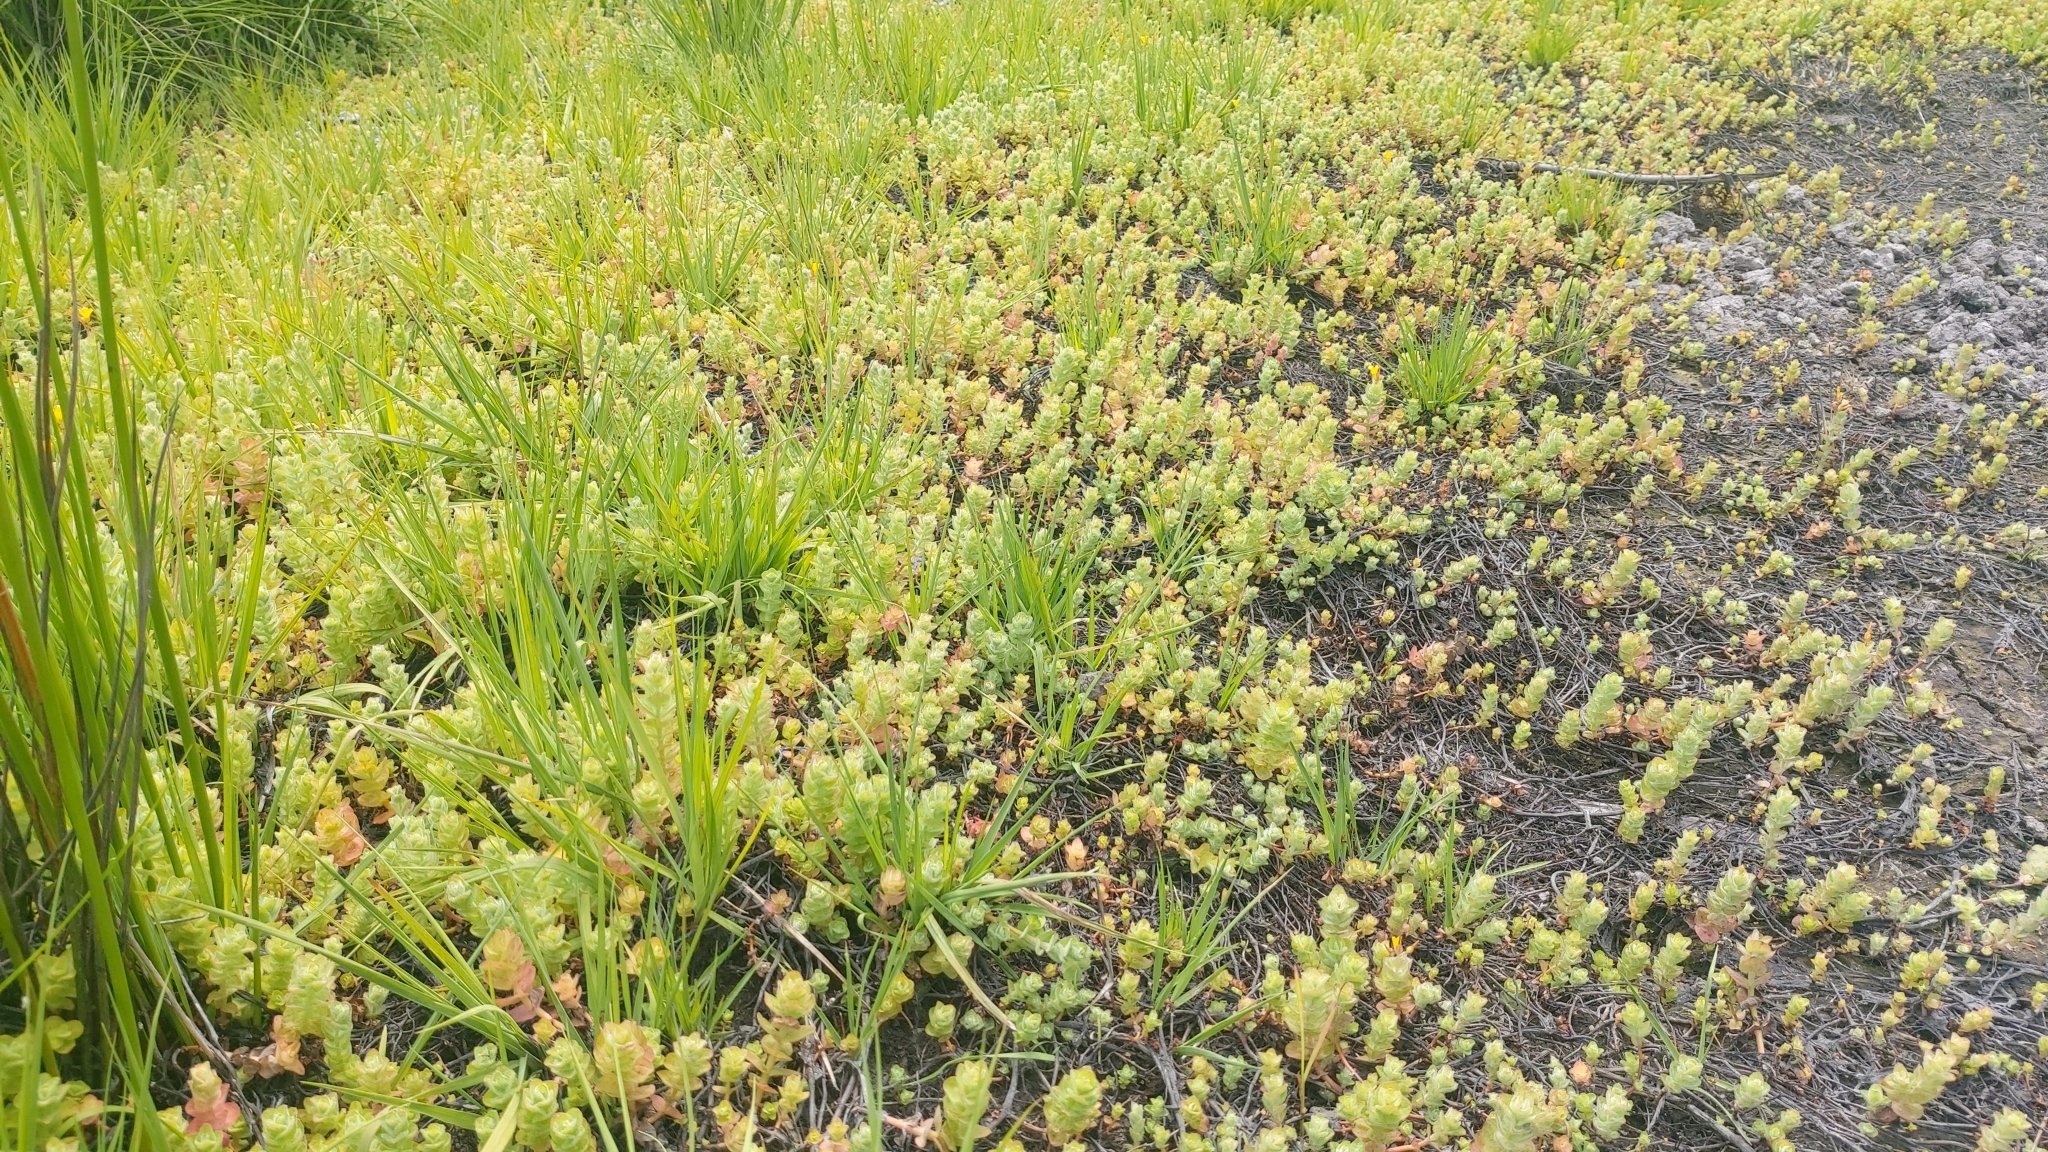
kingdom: Plantae
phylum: Tracheophyta
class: Magnoliopsida
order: Malpighiales
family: Hypericaceae
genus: Hypericum
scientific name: Hypericum elodes
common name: Marsh st. john's-wort
